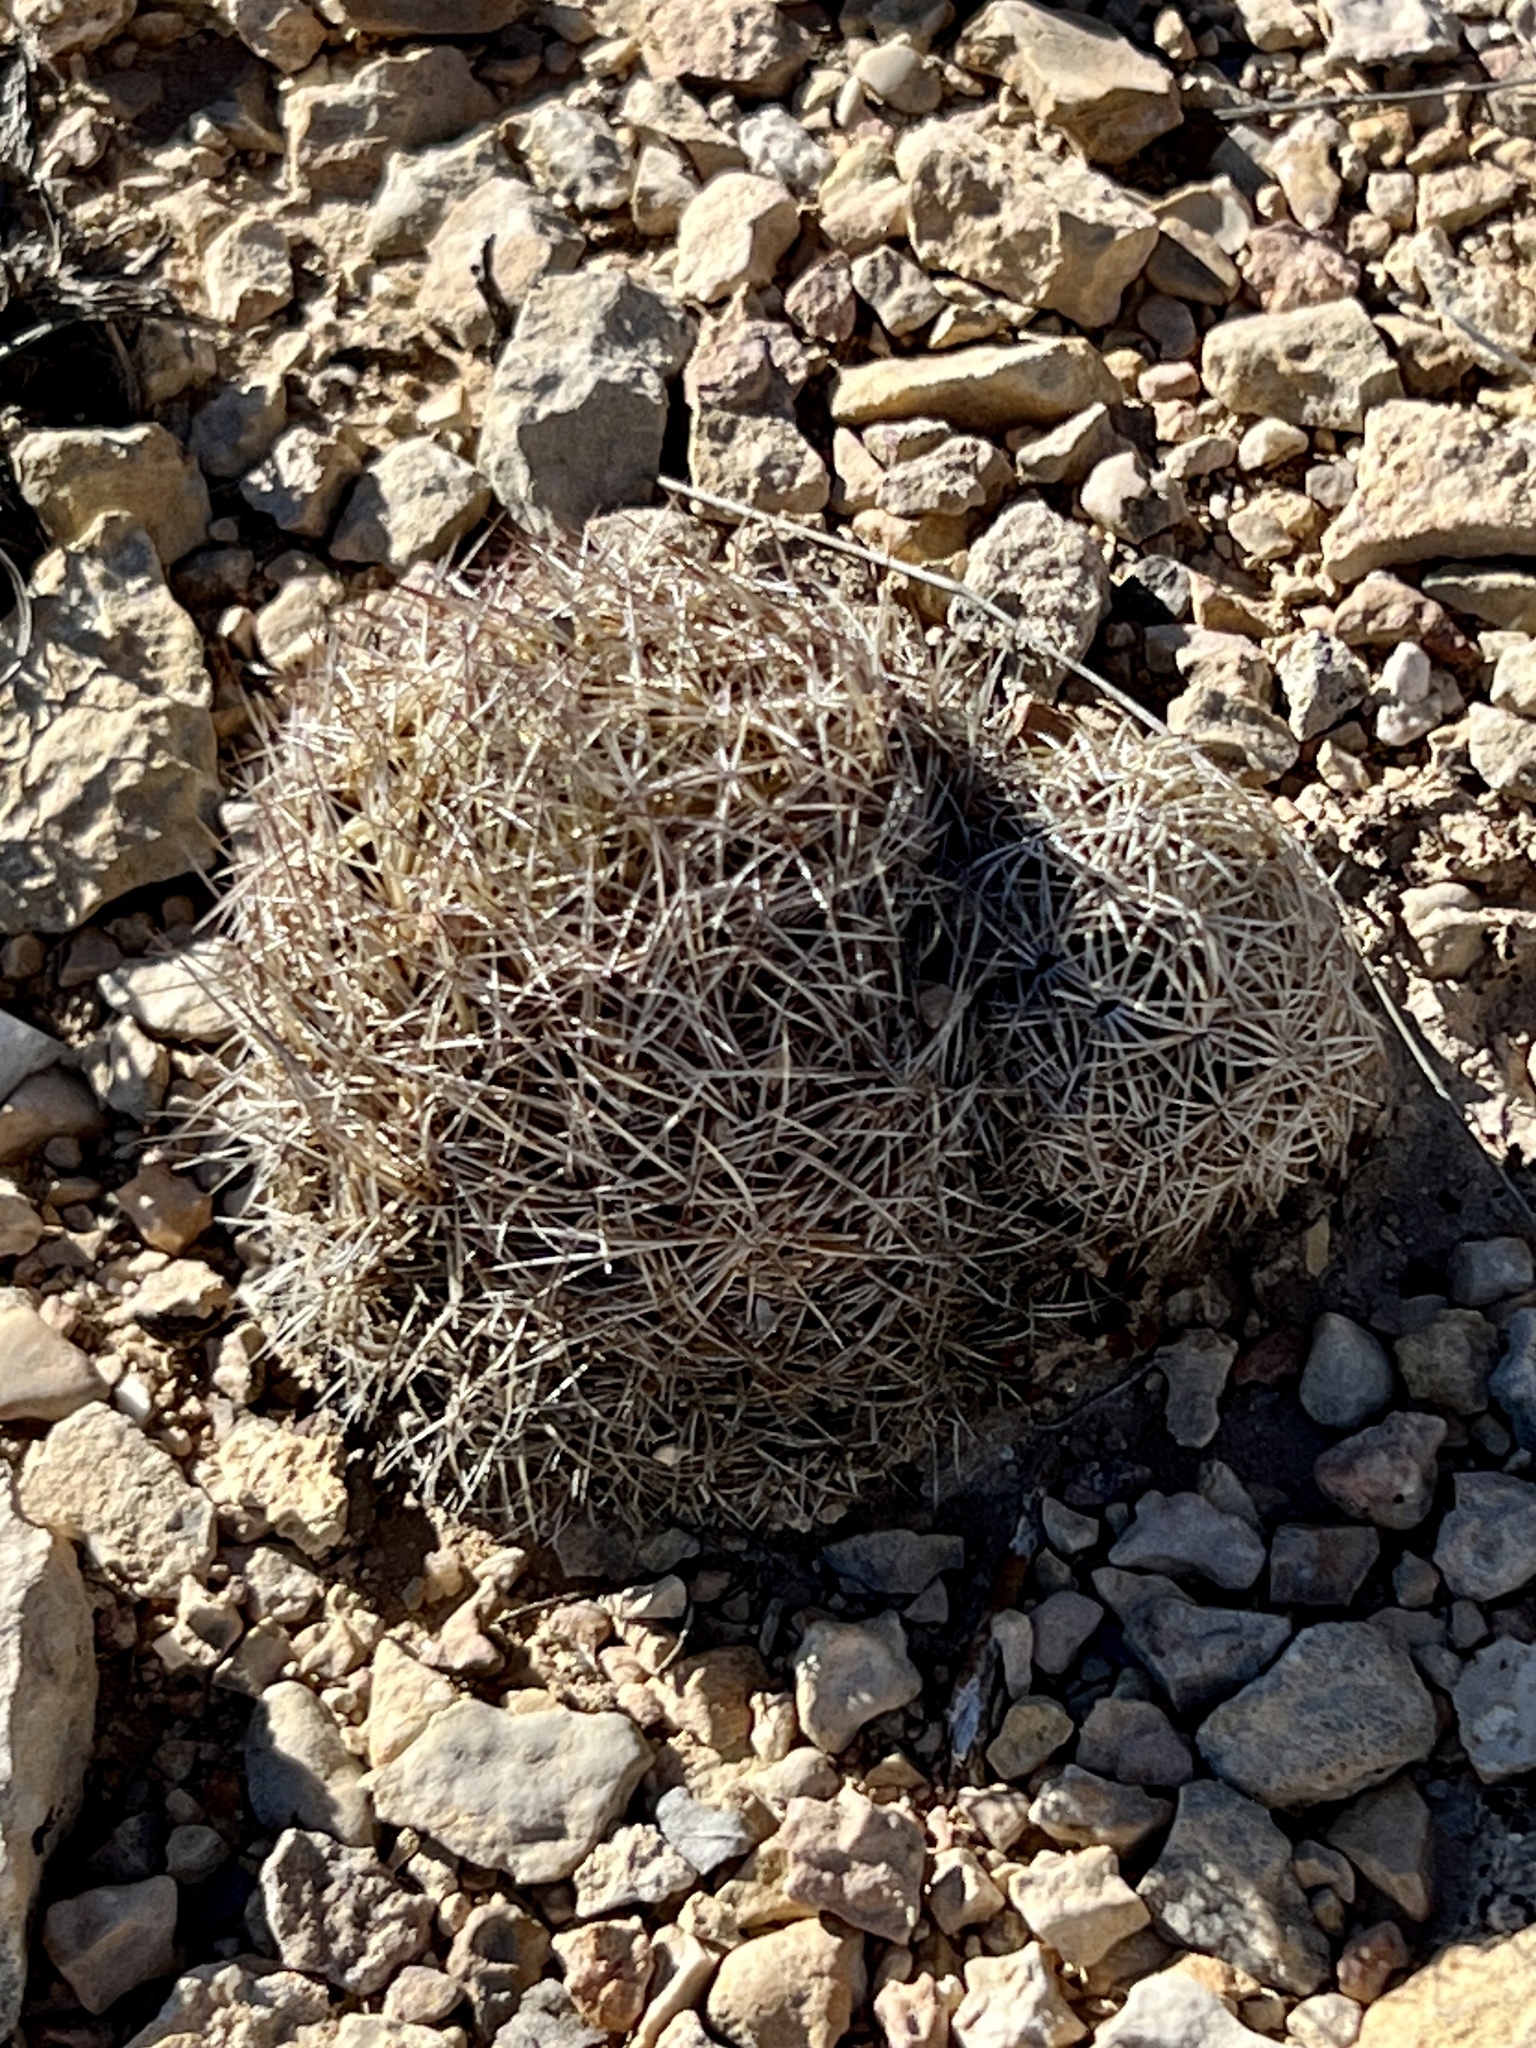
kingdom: Plantae
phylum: Tracheophyta
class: Magnoliopsida
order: Caryophyllales
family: Cactaceae
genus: Coryphantha
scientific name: Coryphantha echinus
